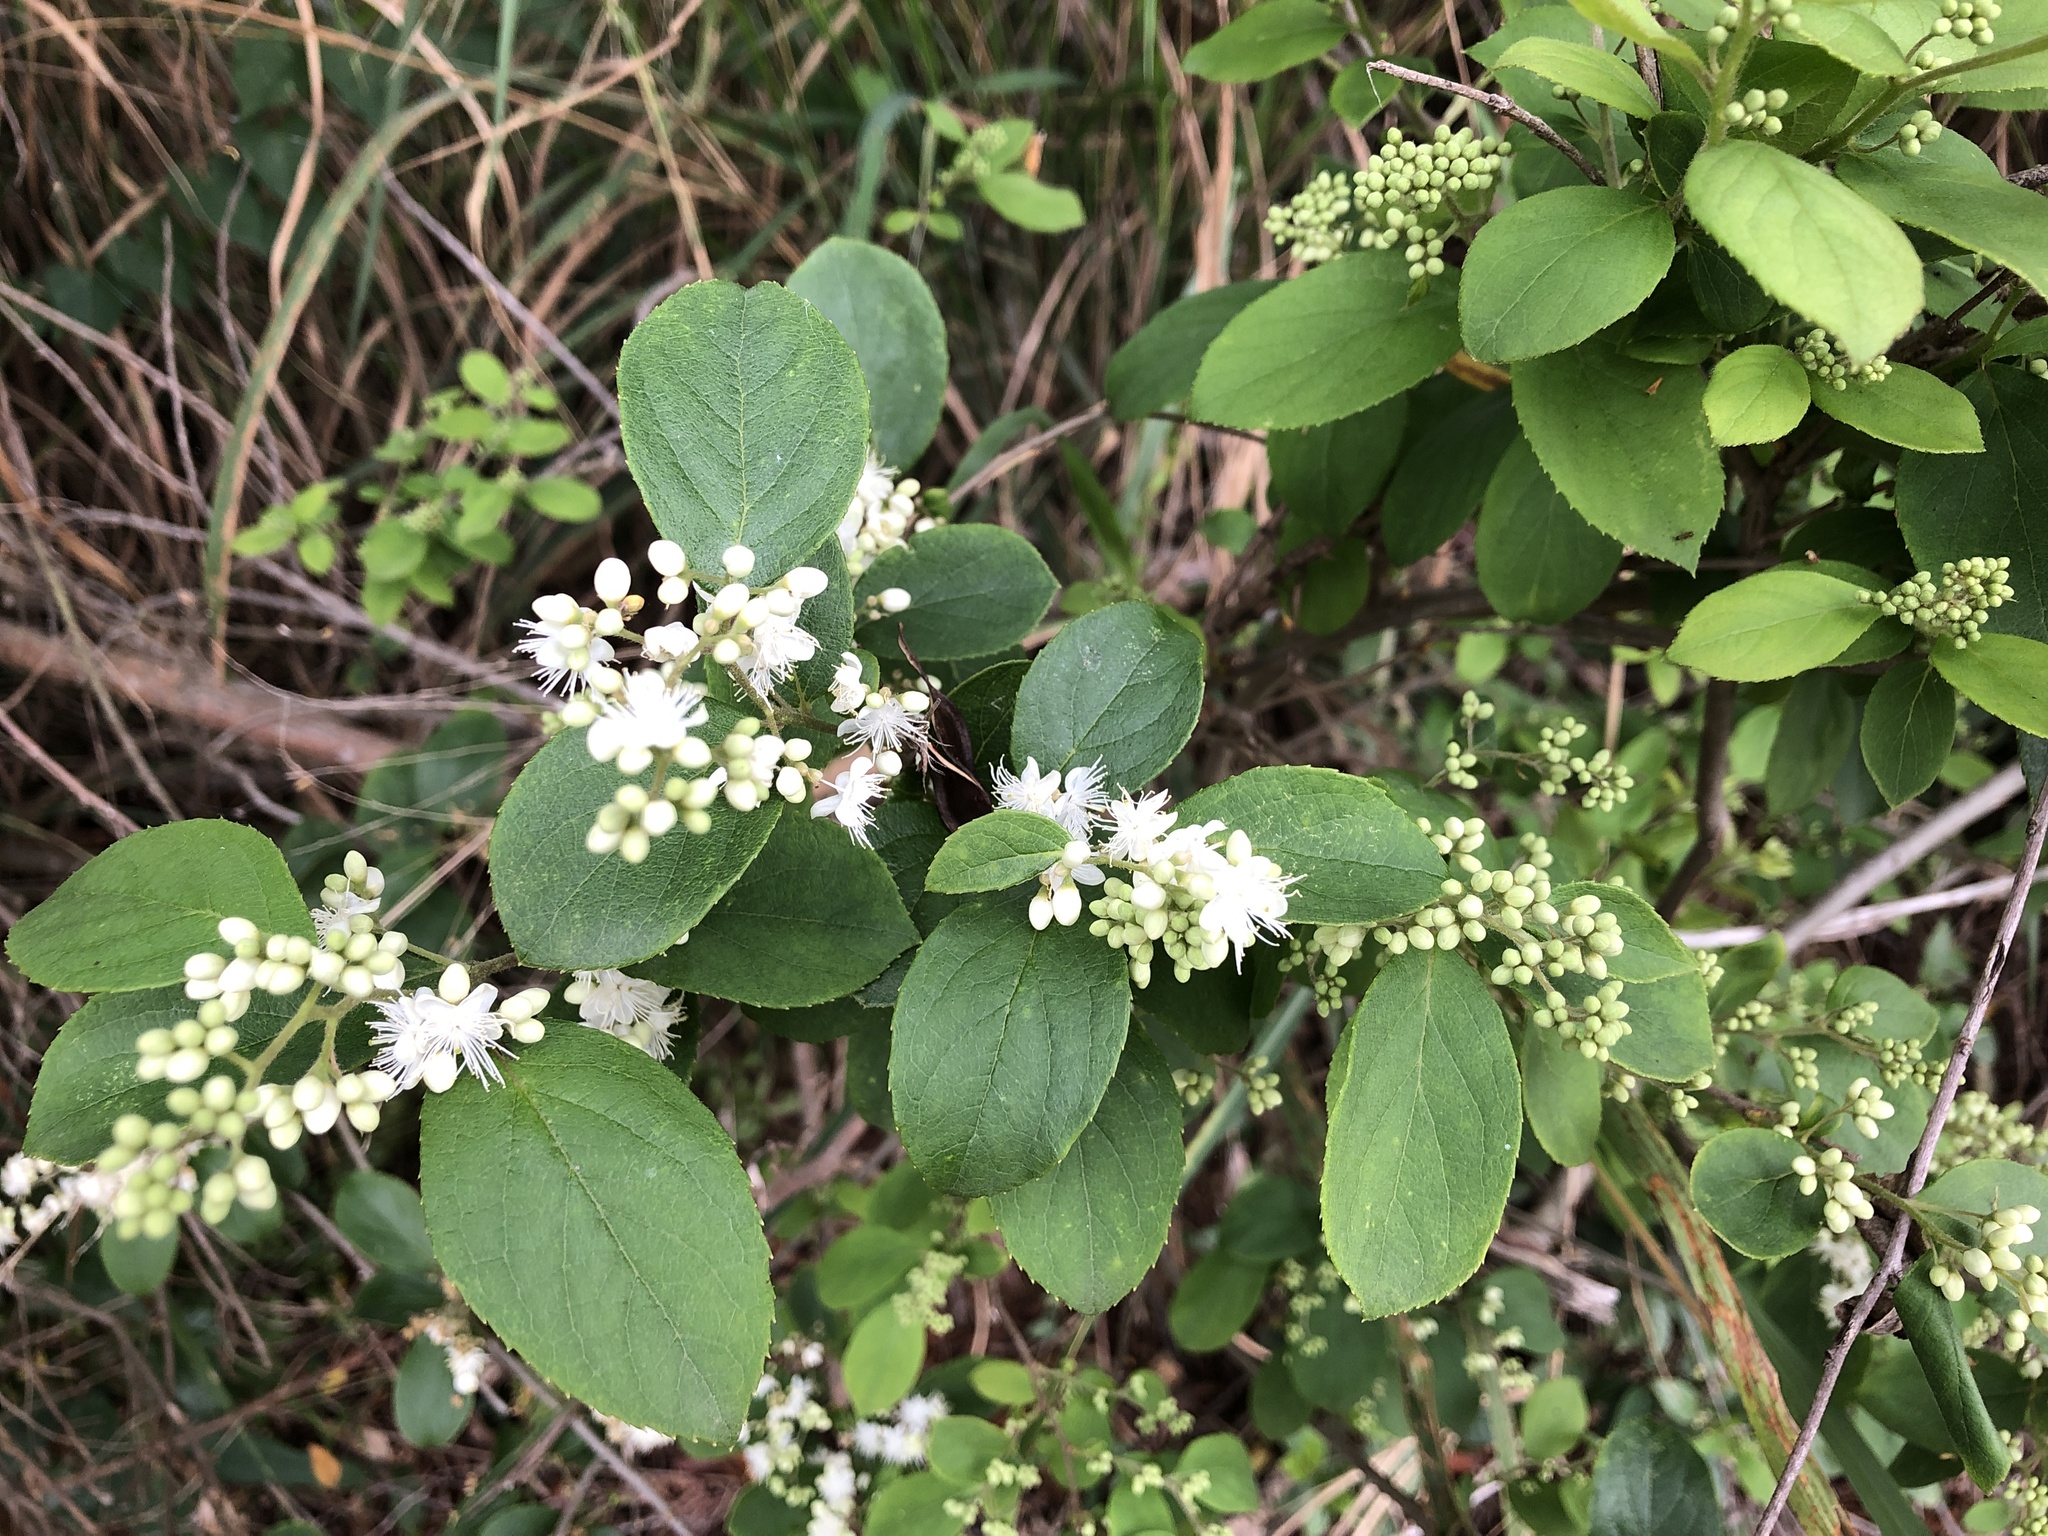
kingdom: Plantae
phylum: Tracheophyta
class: Magnoliopsida
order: Ericales
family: Symplocaceae
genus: Symplocos
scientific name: Symplocos paniculata
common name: Sapphire-berry
